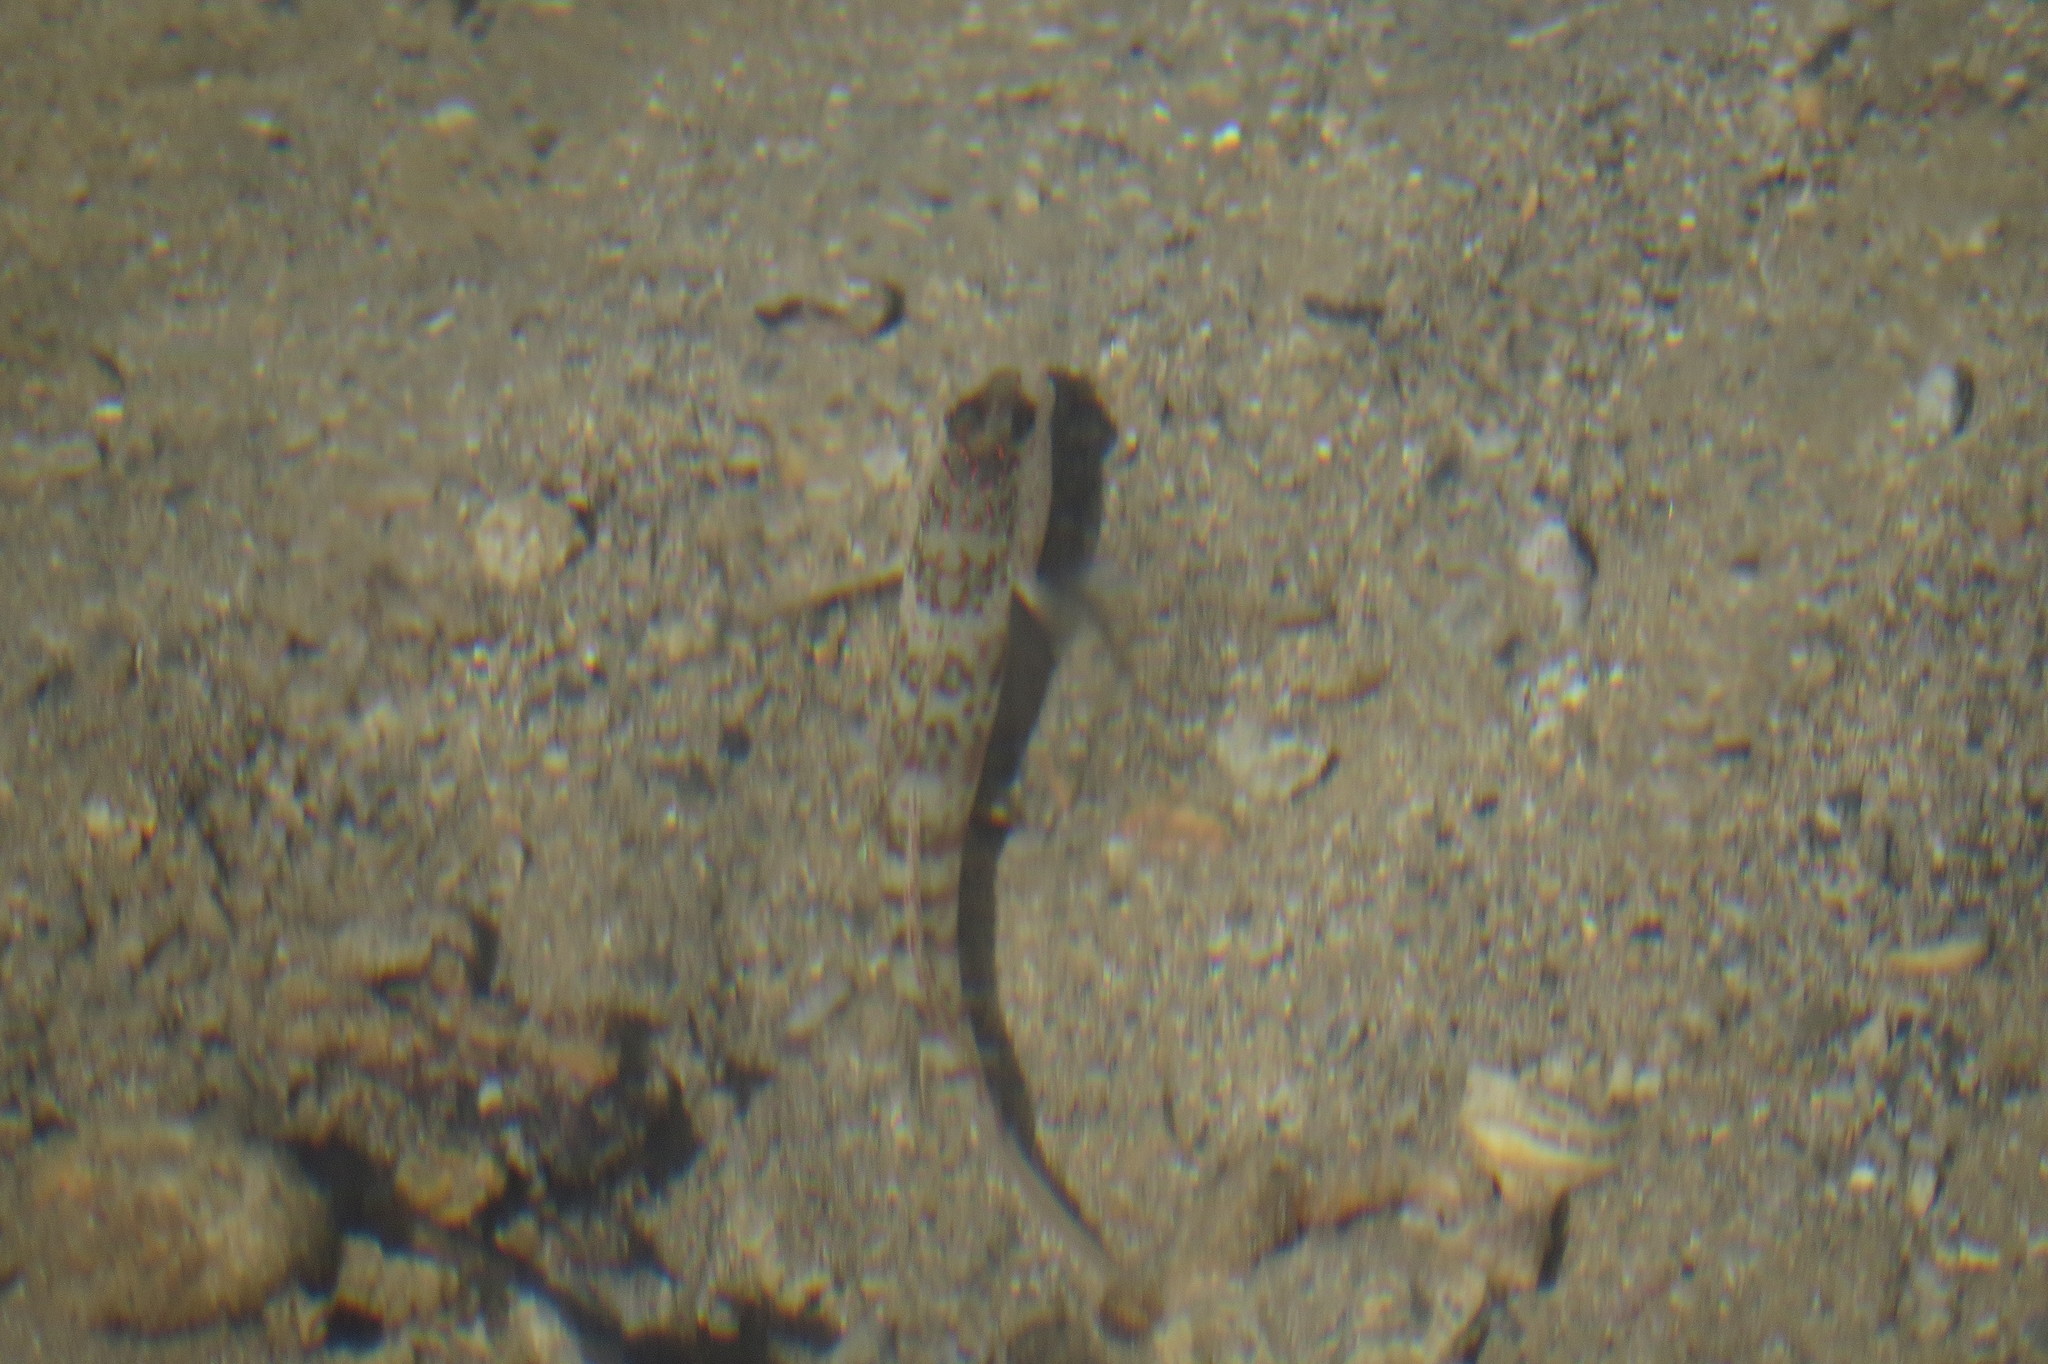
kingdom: Animalia
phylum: Chordata
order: Perciformes
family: Gobiidae
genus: Cryptocentrus
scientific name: Cryptocentrus leptocephalus
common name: Leptocephalus prawn-goby
